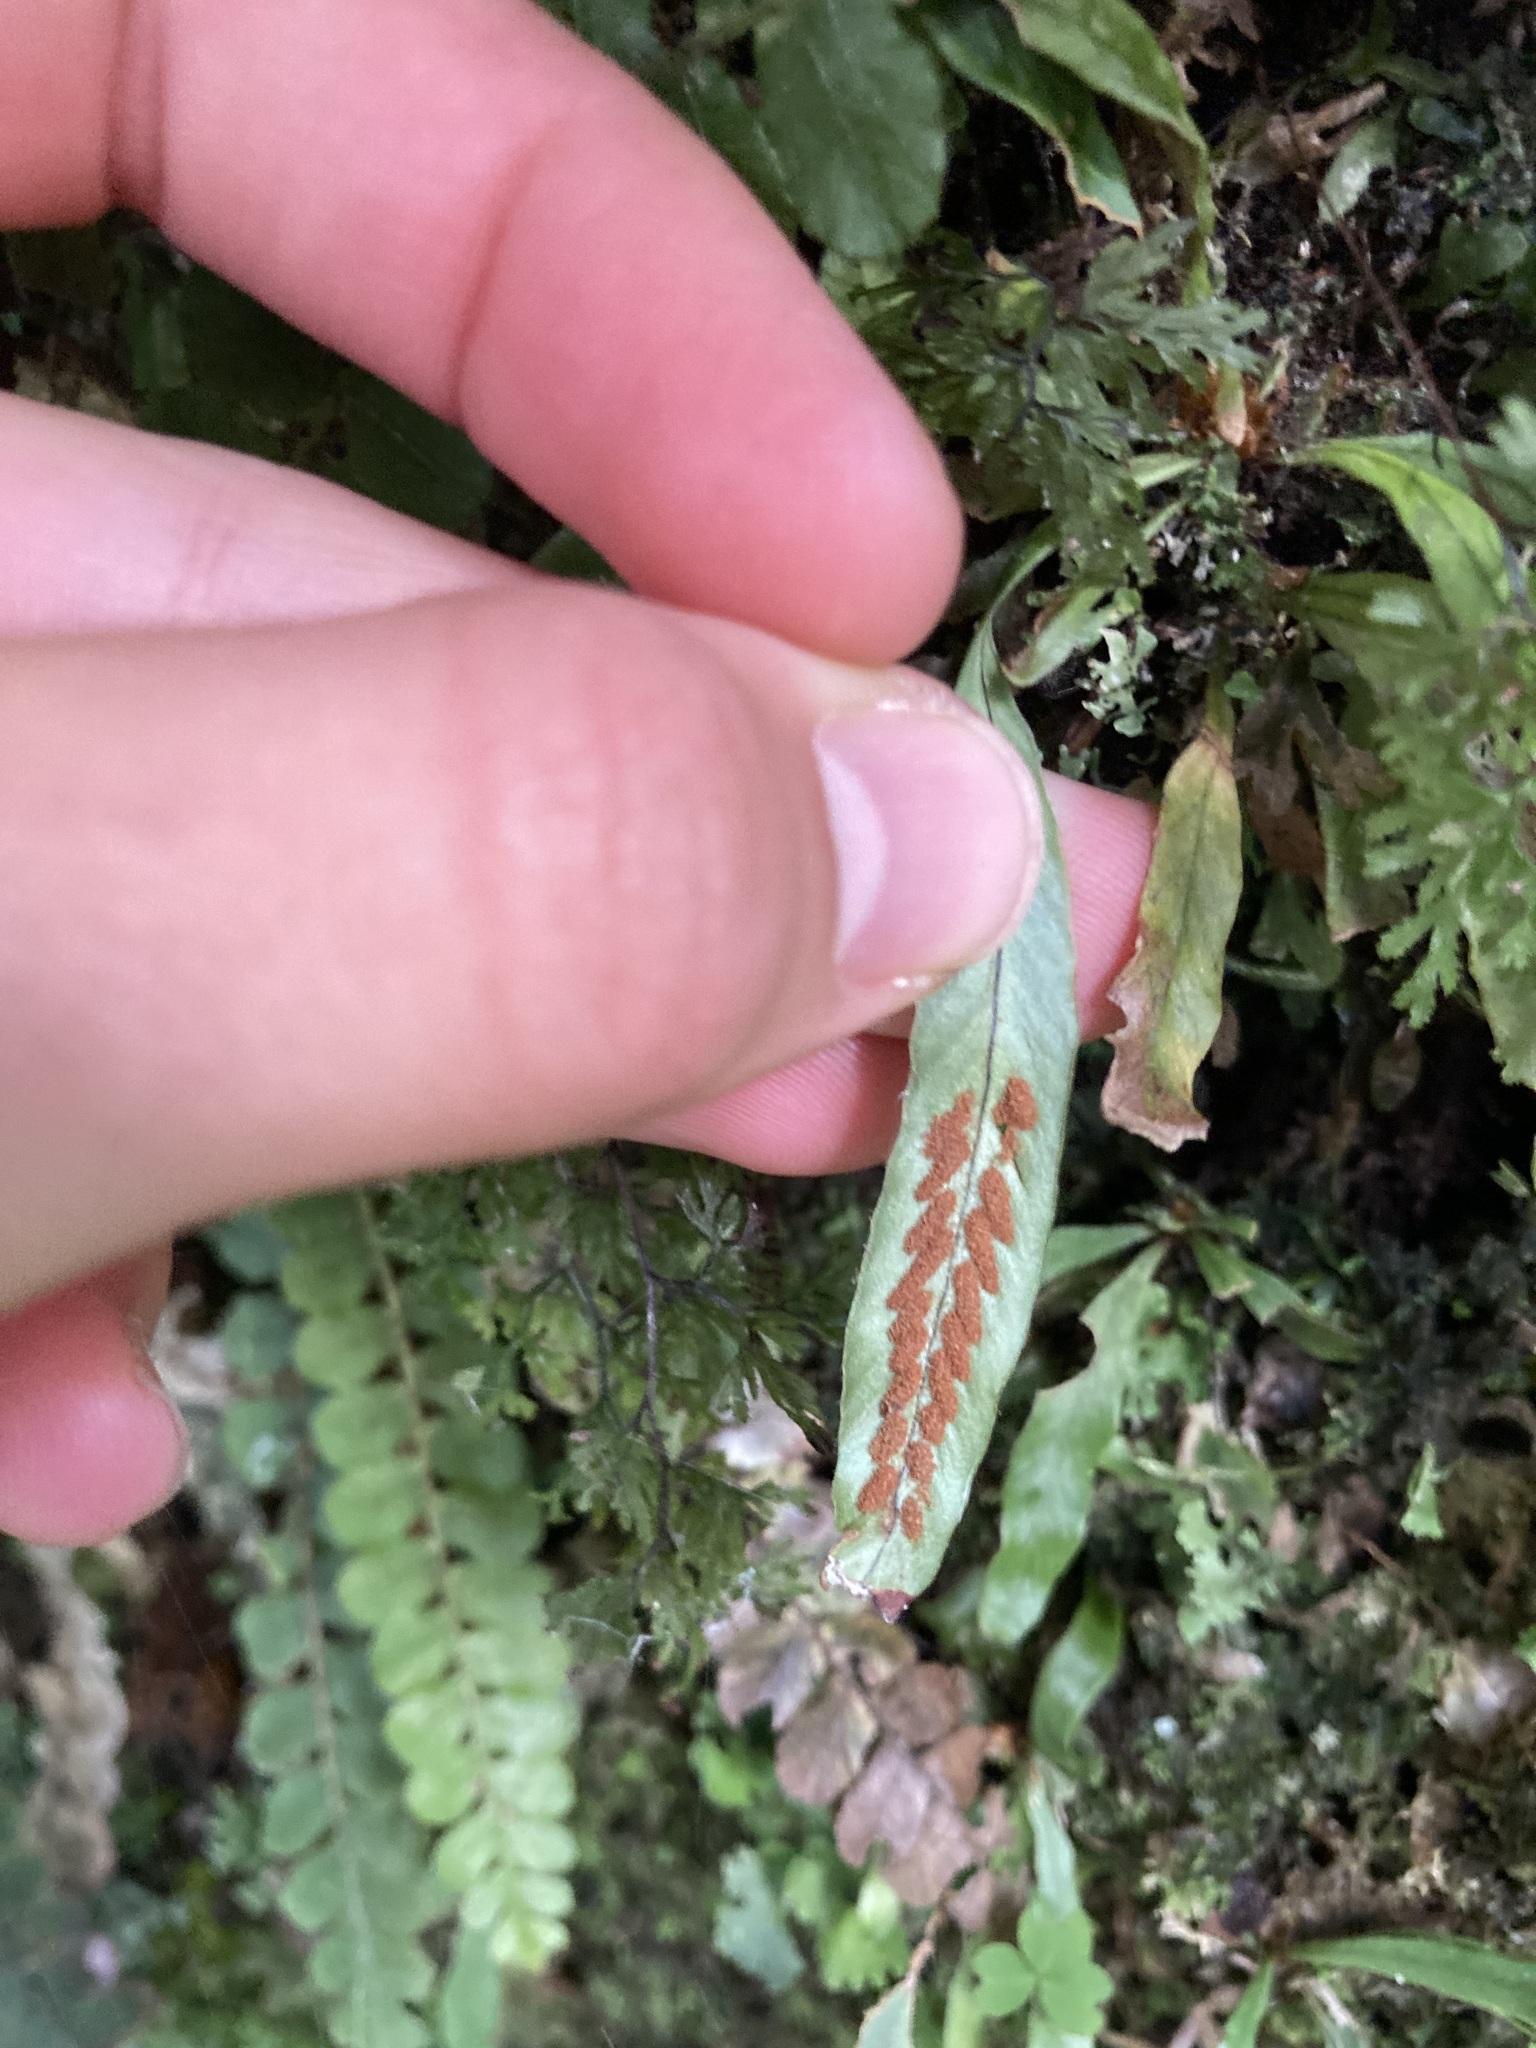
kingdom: Plantae
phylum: Tracheophyta
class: Polypodiopsida
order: Polypodiales
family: Polypodiaceae
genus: Notogrammitis
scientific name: Notogrammitis billardierei
